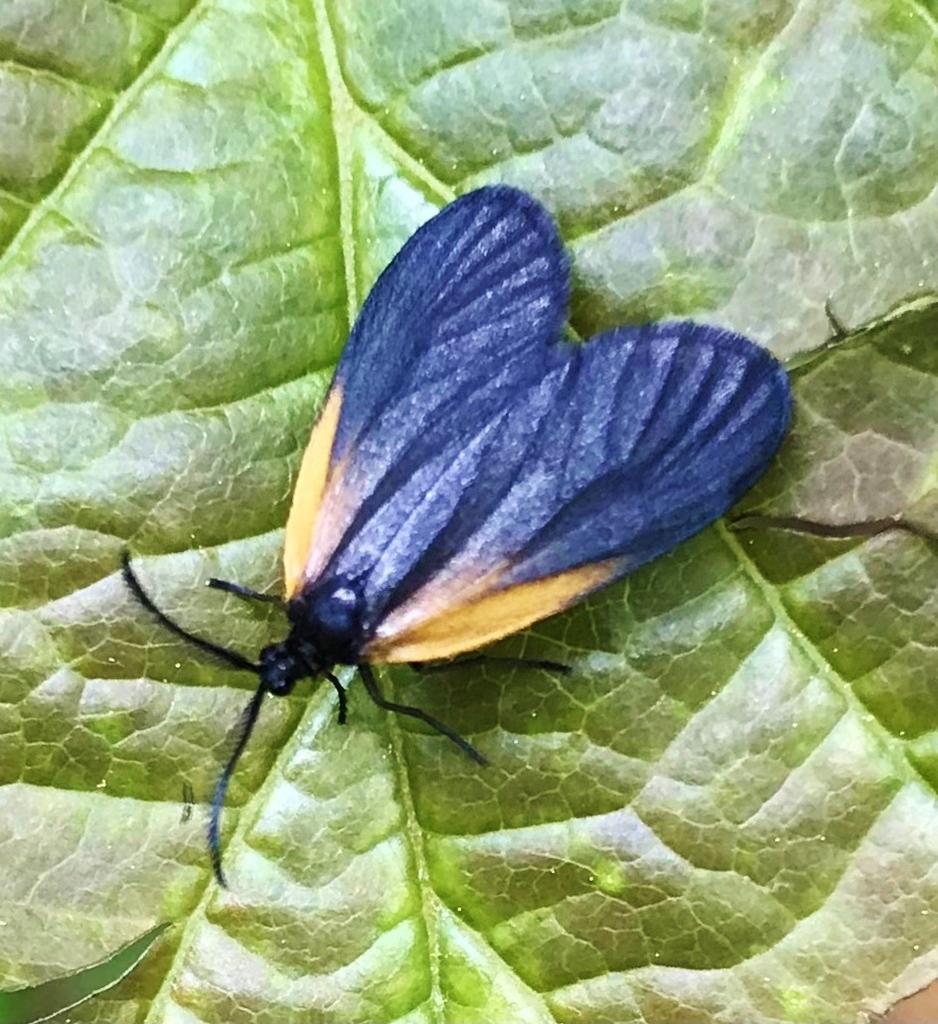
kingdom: Animalia
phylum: Arthropoda
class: Insecta
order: Lepidoptera
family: Zygaenidae
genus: Malthaca
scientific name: Malthaca dimidiata
